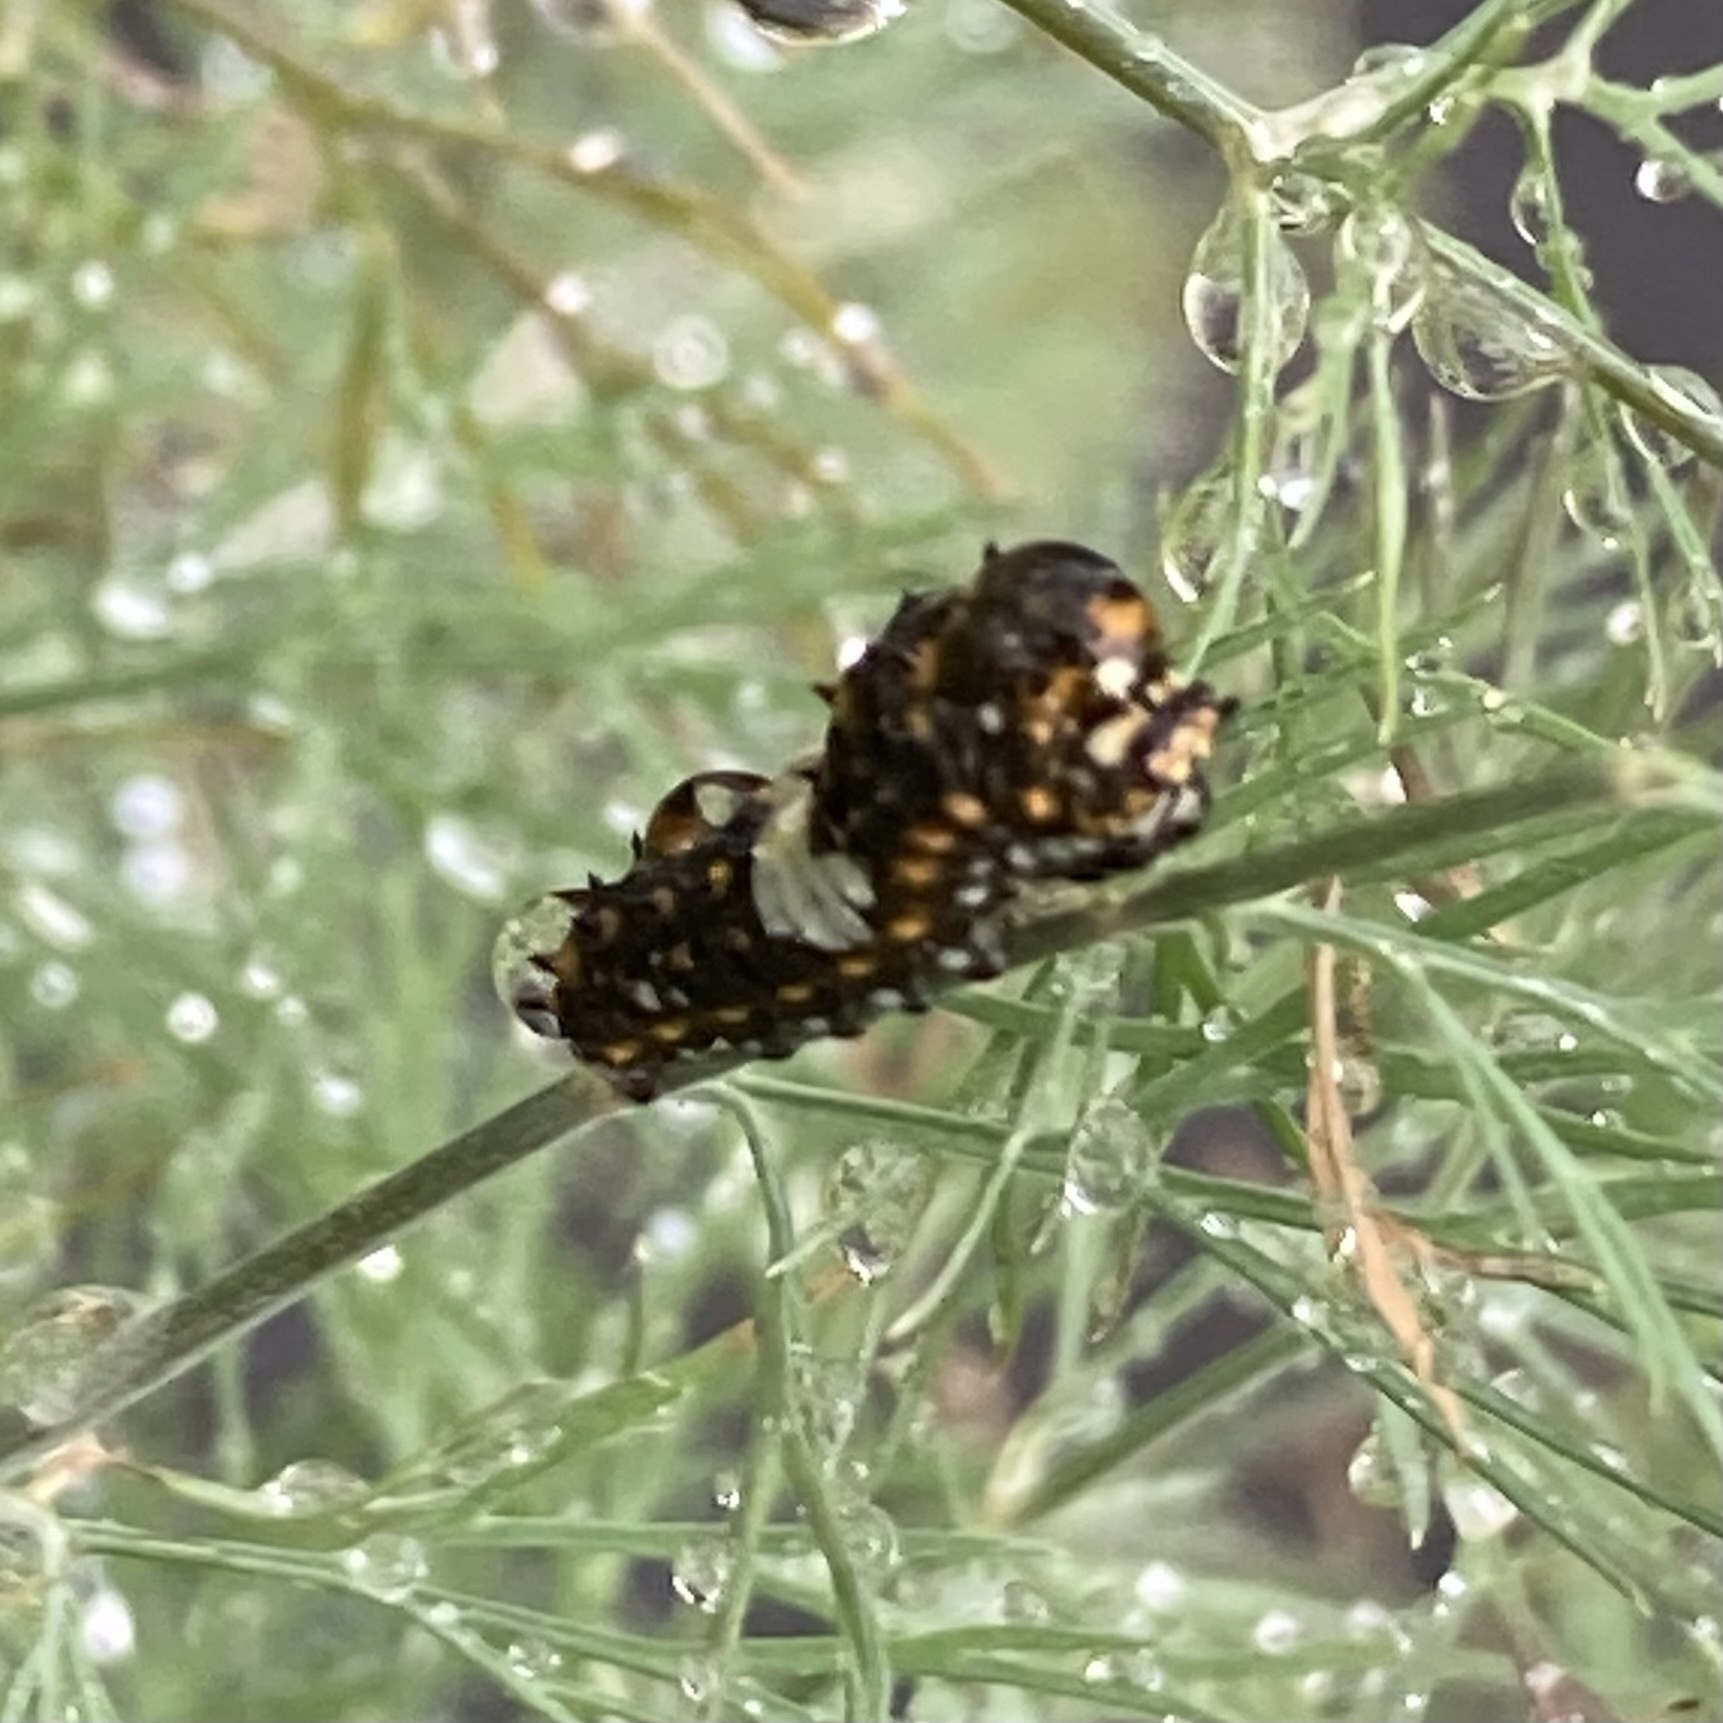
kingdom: Animalia
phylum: Arthropoda
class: Insecta
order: Lepidoptera
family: Papilionidae
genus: Papilio
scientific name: Papilio polyxenes
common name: Black swallowtail
